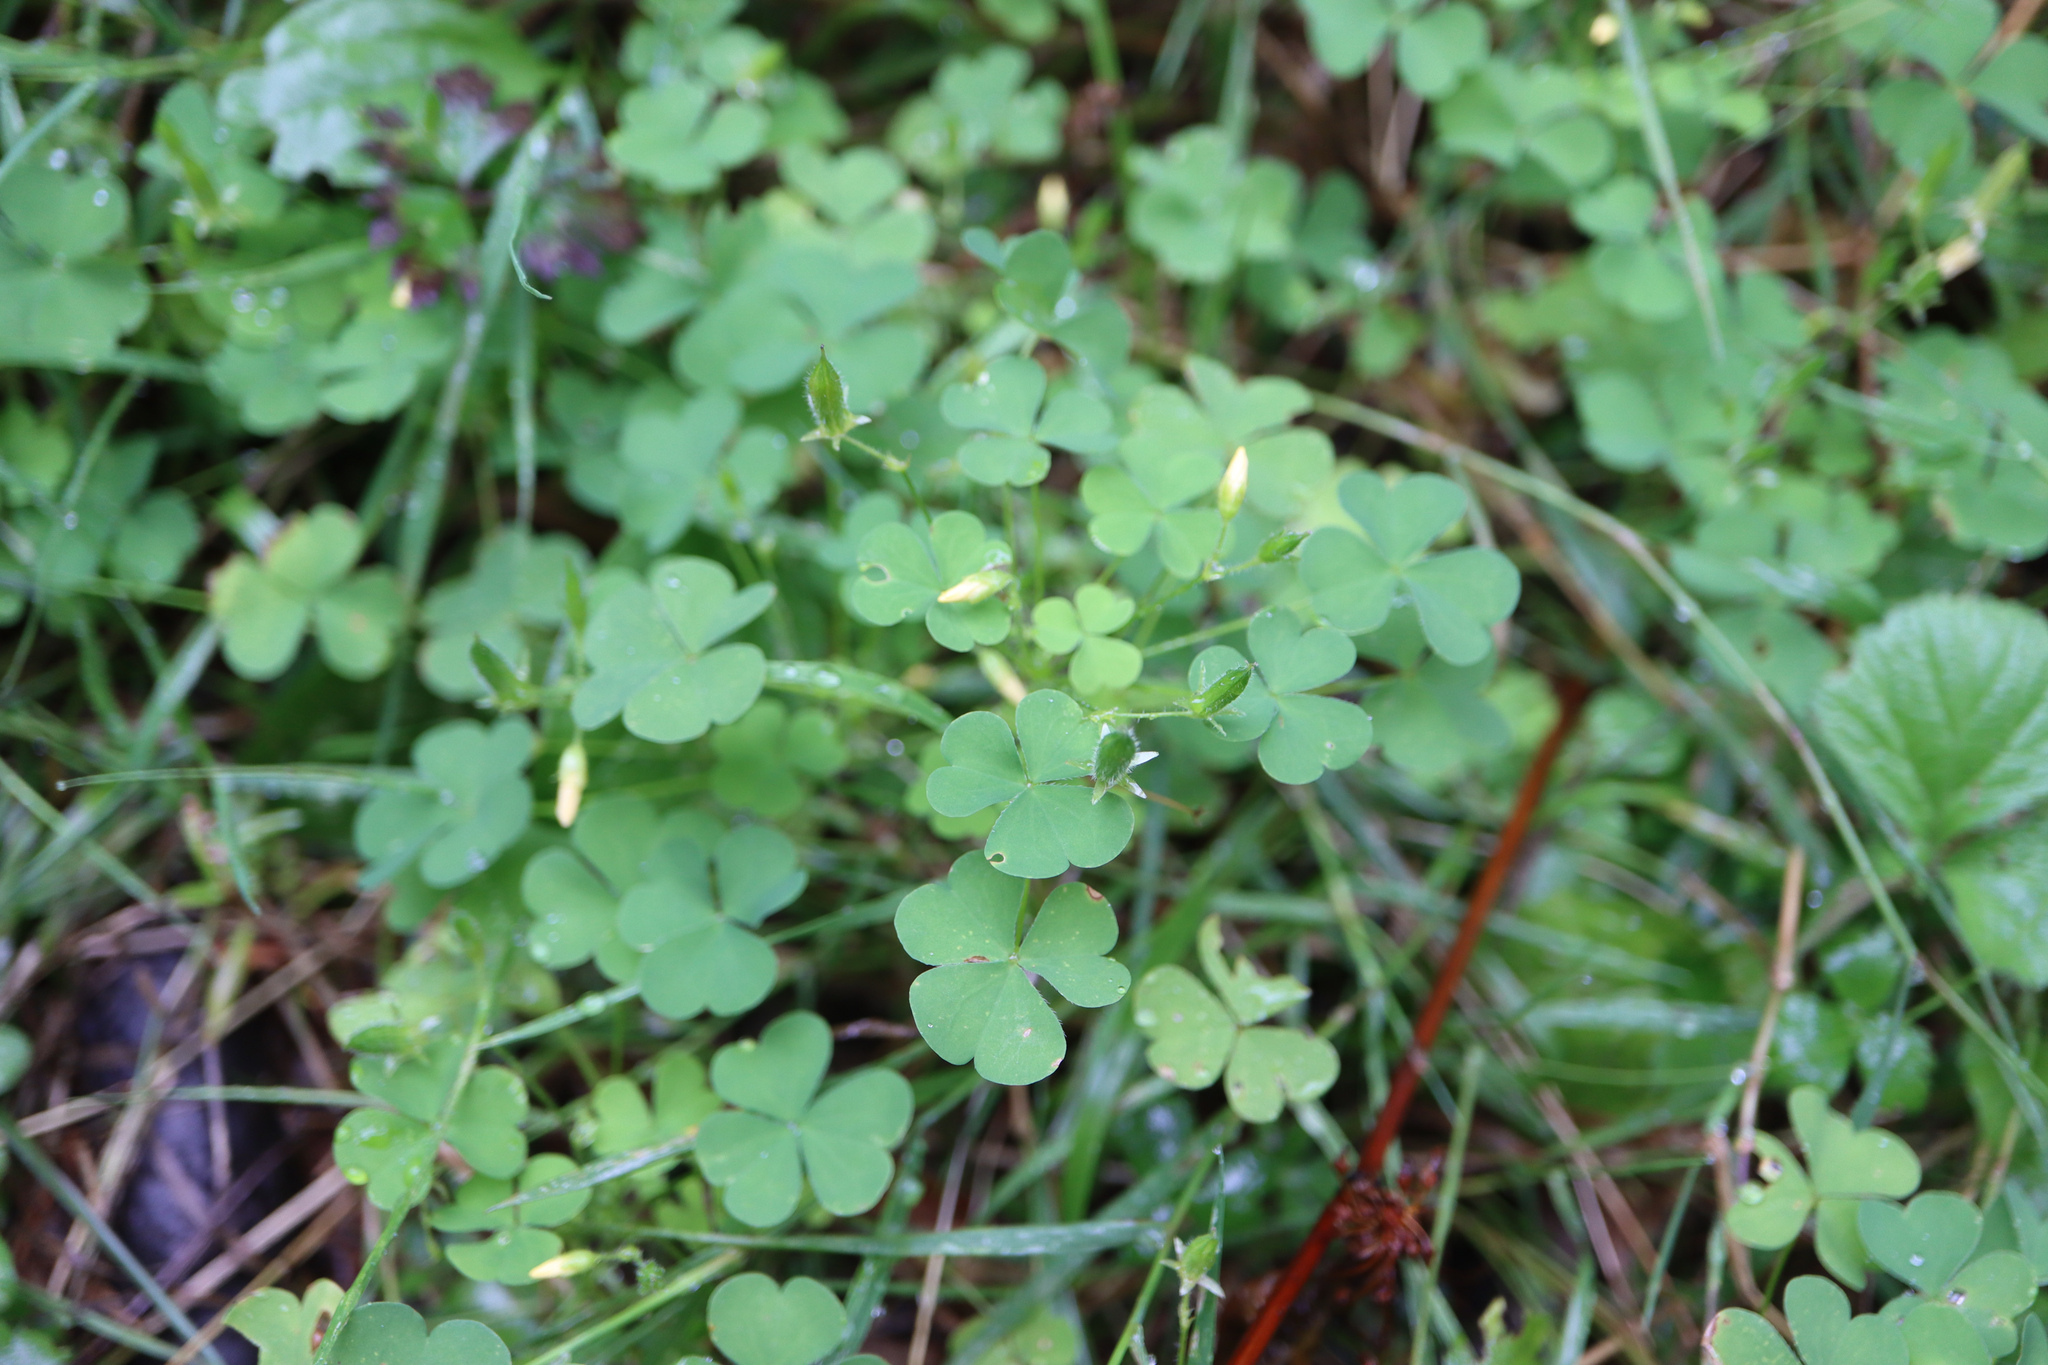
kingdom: Plantae
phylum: Tracheophyta
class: Magnoliopsida
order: Oxalidales
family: Oxalidaceae
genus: Oxalis
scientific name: Oxalis stricta
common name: Upright yellow-sorrel
